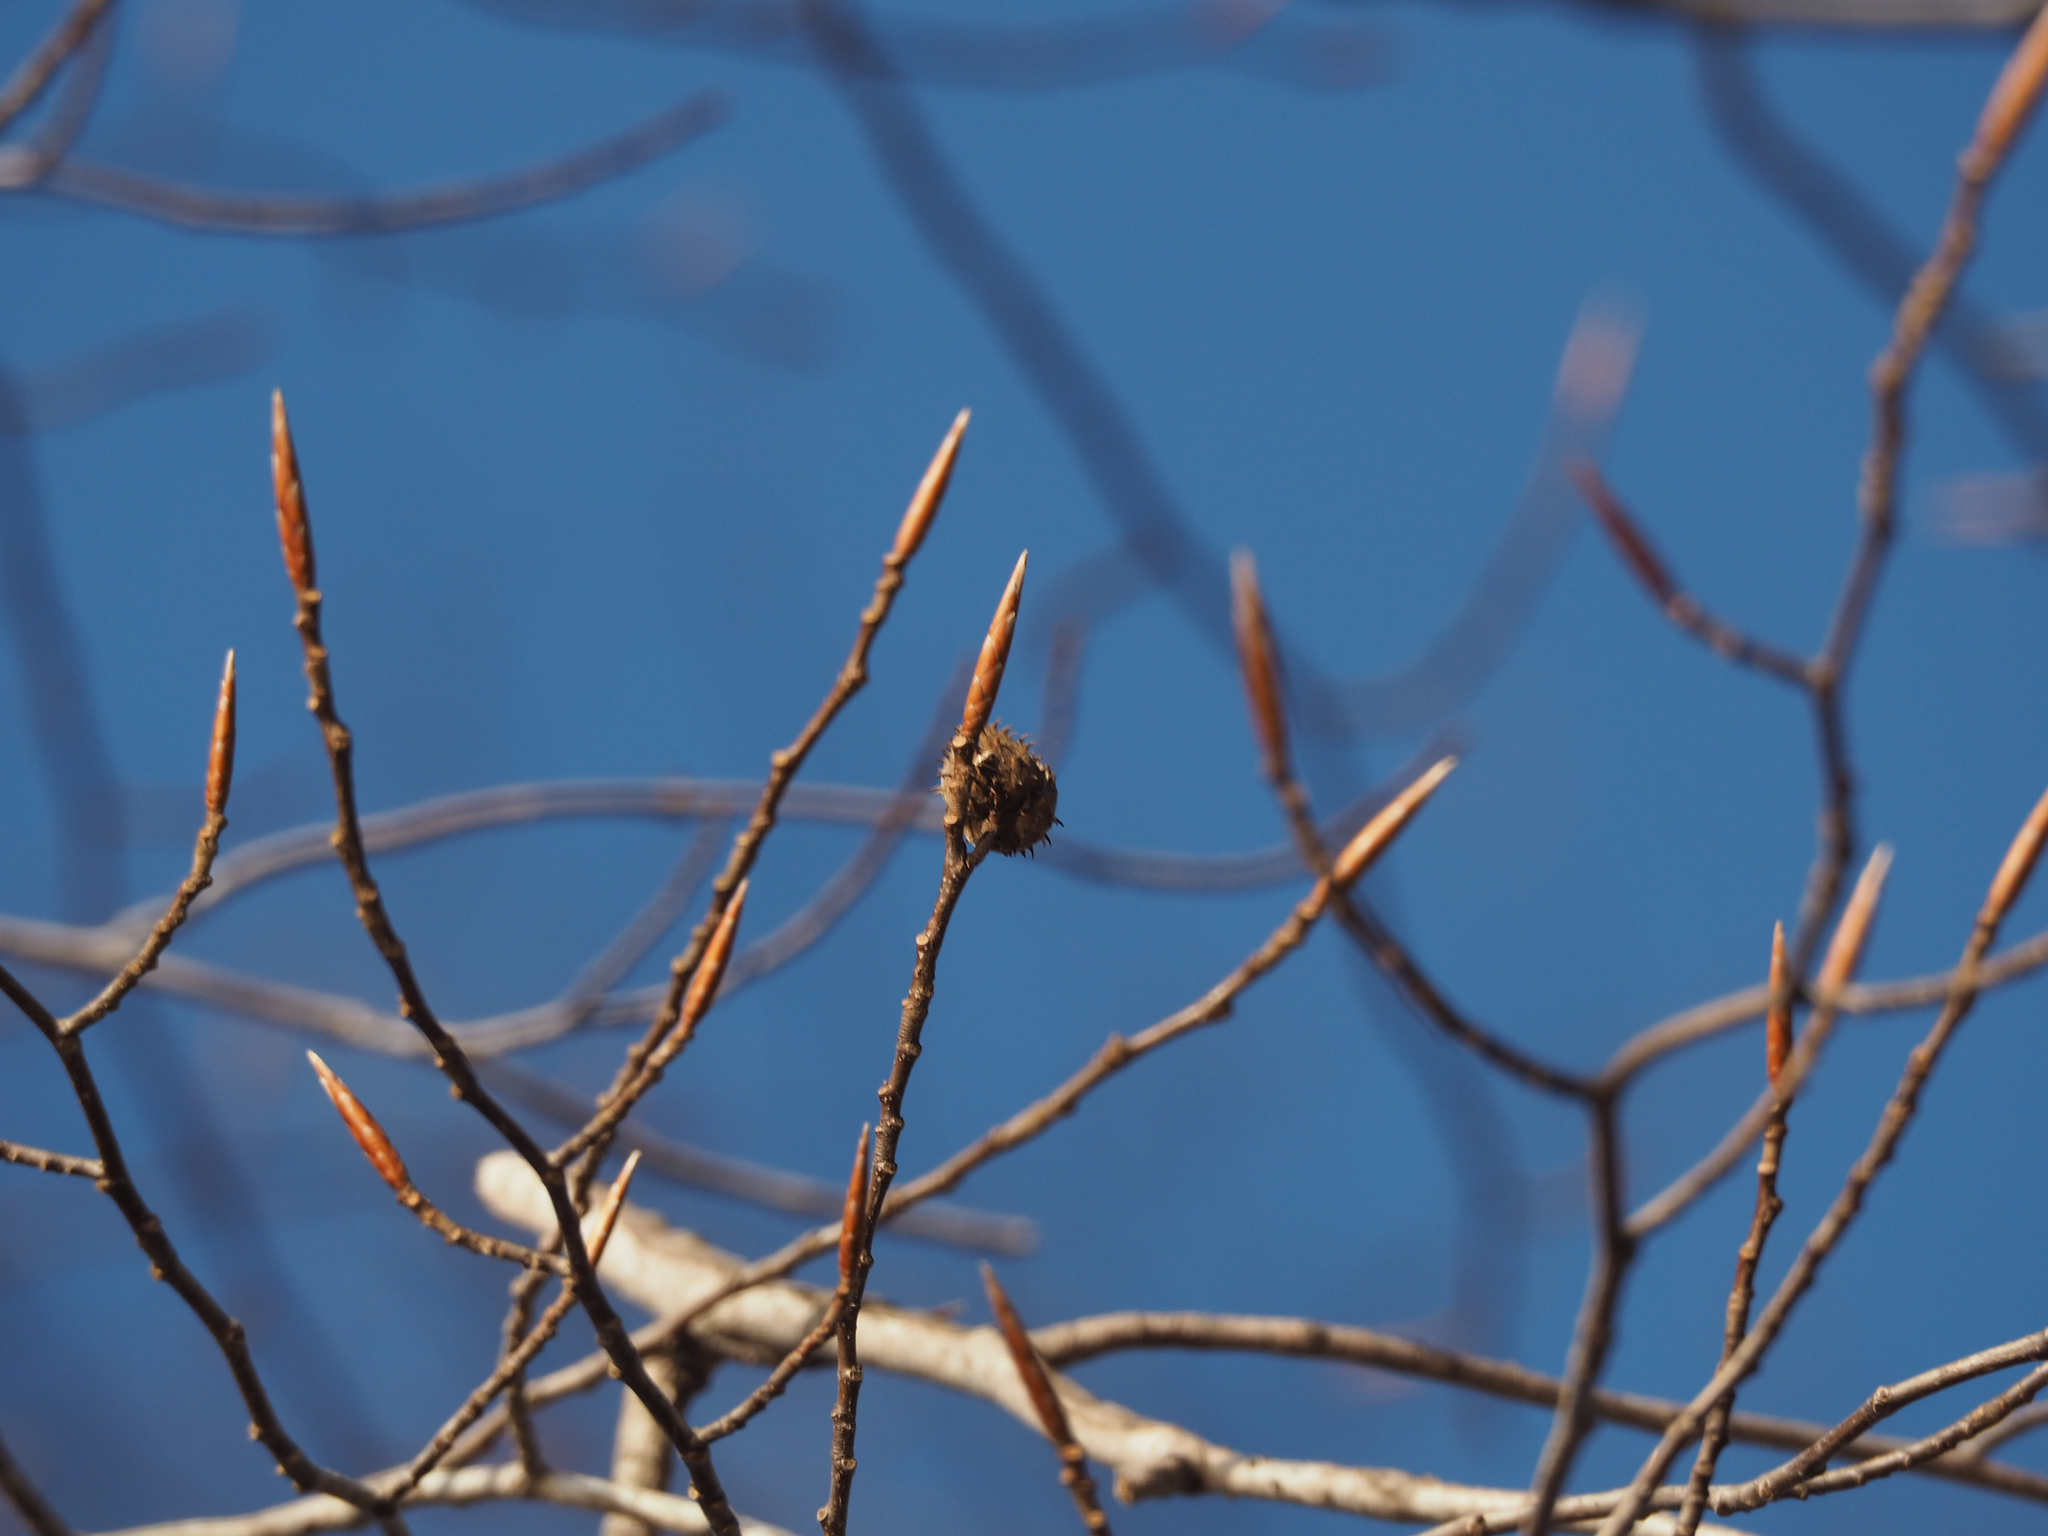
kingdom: Plantae
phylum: Tracheophyta
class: Magnoliopsida
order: Fagales
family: Fagaceae
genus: Fagus
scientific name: Fagus grandifolia
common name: American beech
